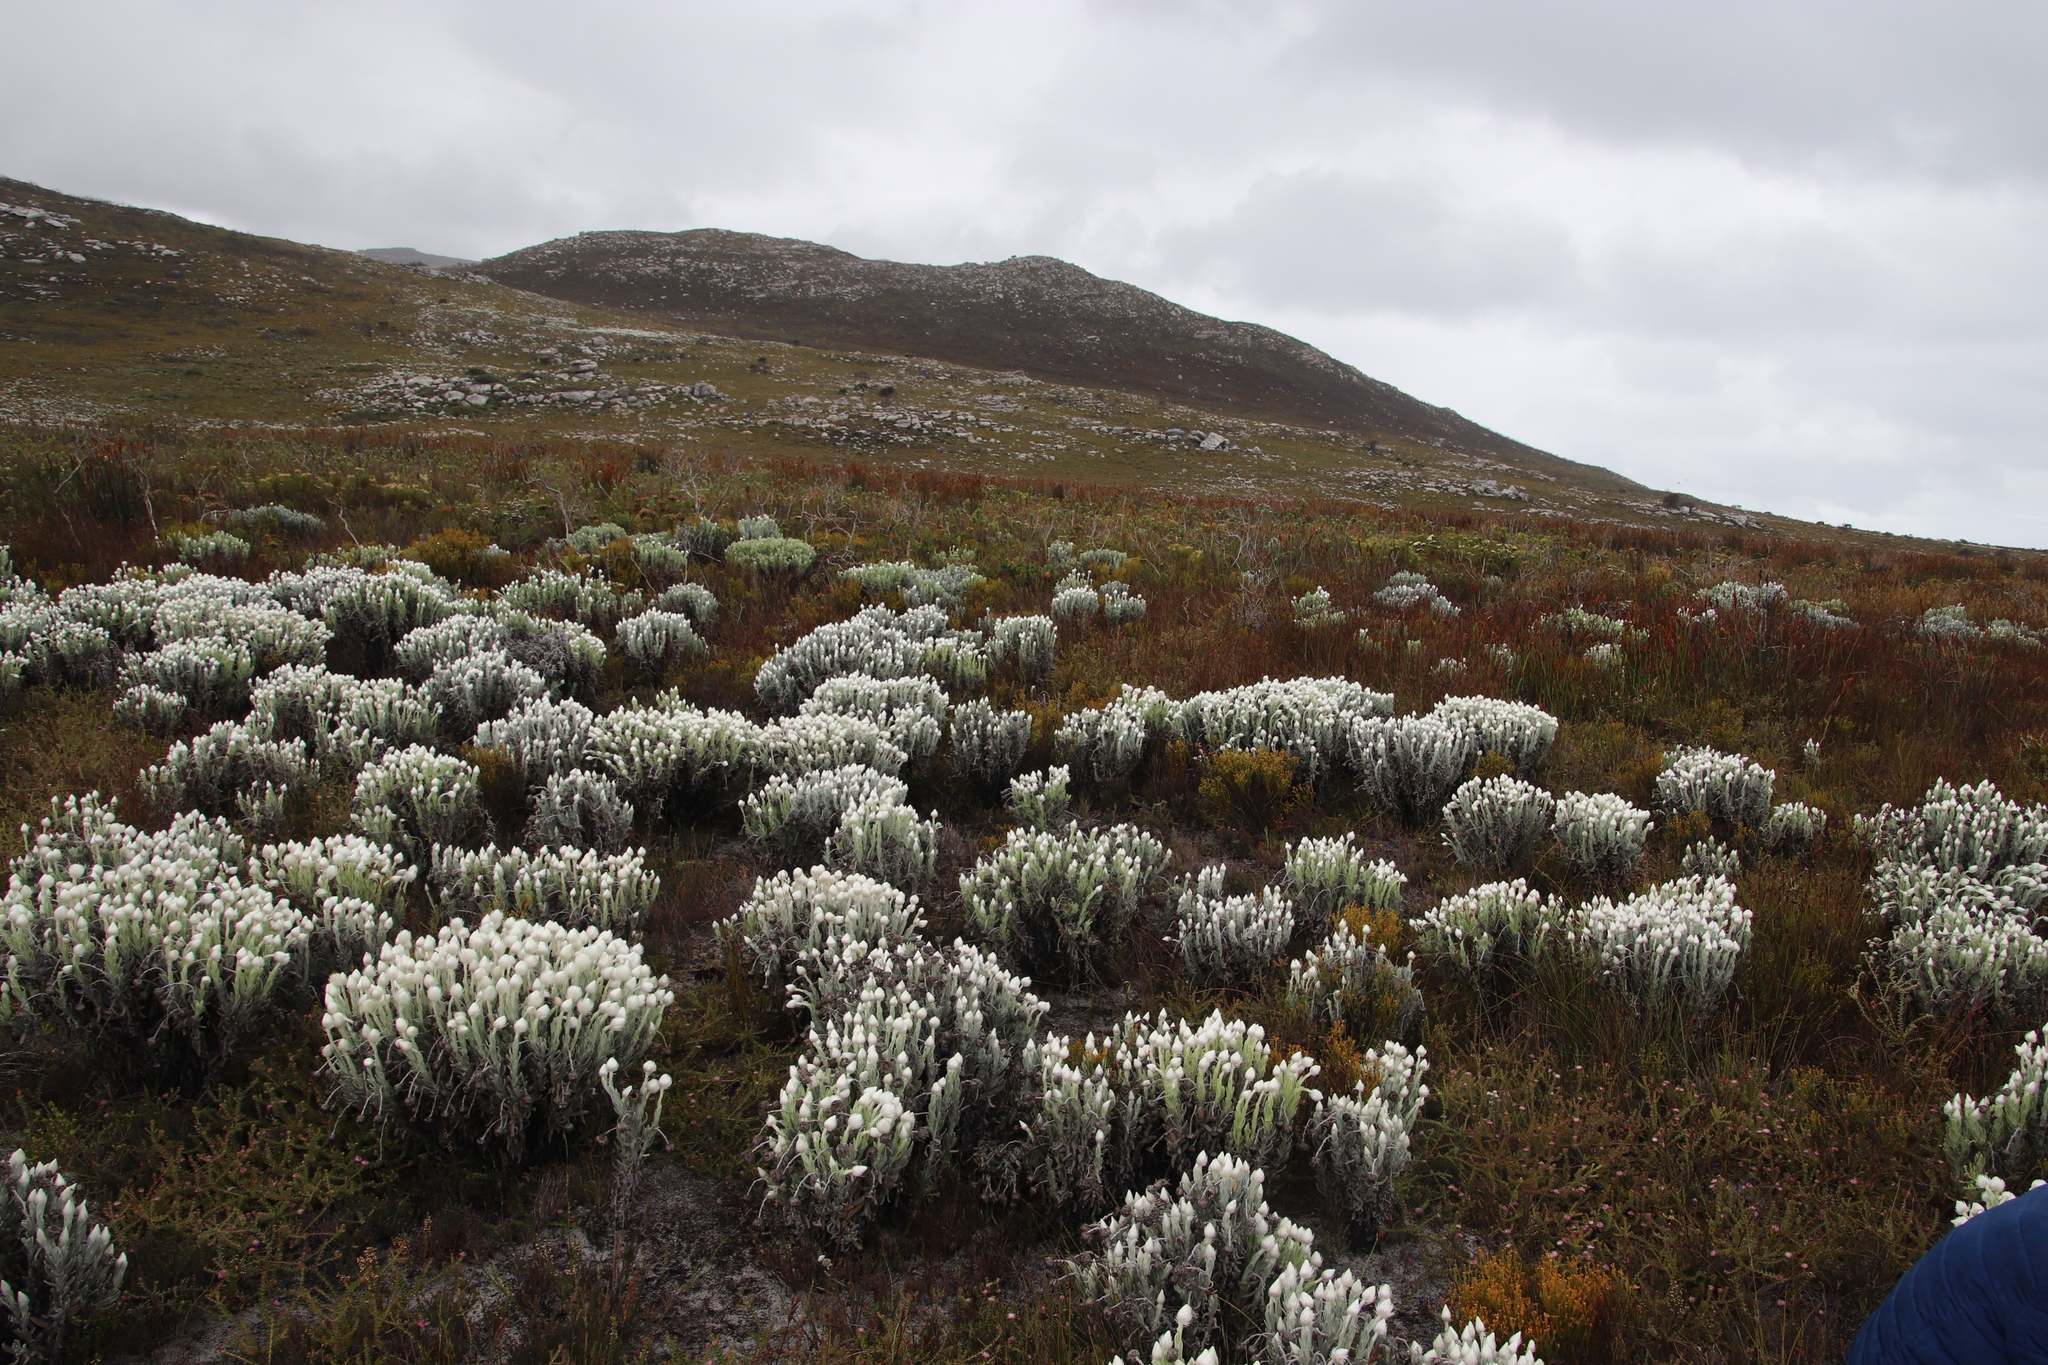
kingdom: Plantae
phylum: Tracheophyta
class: Magnoliopsida
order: Santalales
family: Thesiaceae
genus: Thesium
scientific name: Thesium nudicaule
